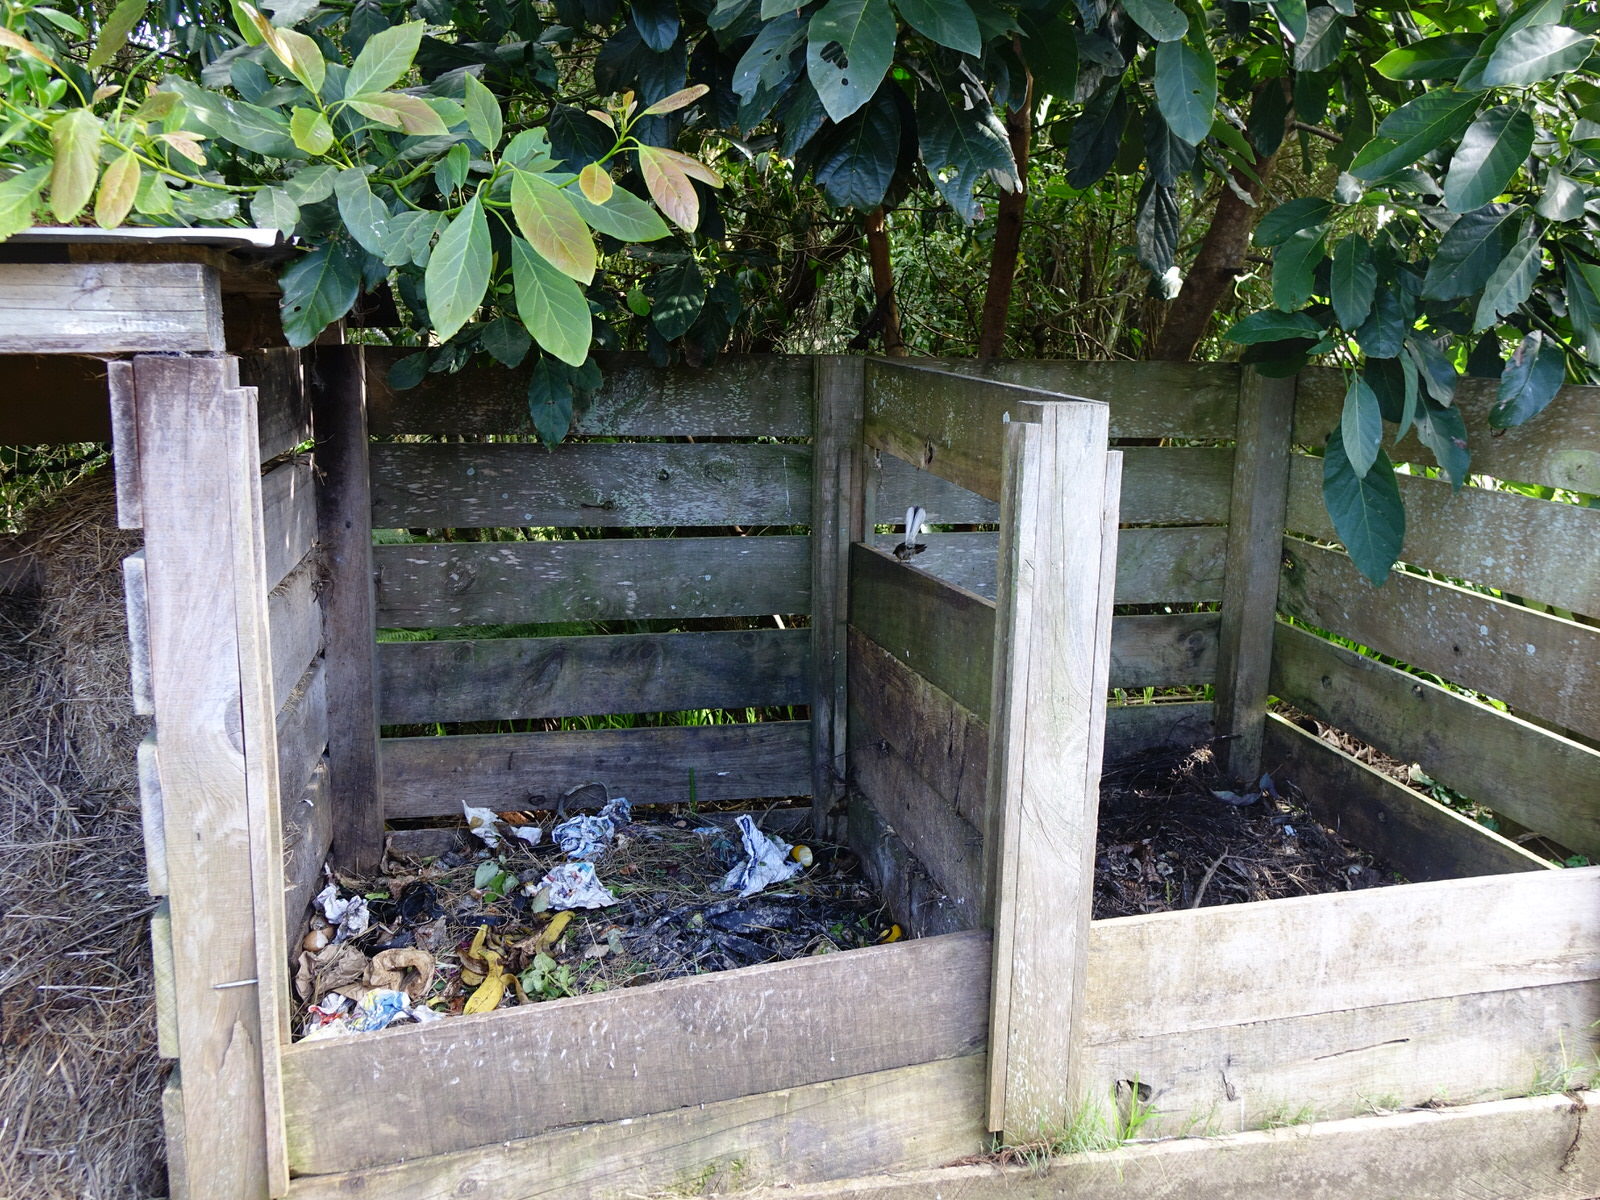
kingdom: Animalia
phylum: Chordata
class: Aves
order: Passeriformes
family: Rhipiduridae
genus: Rhipidura
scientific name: Rhipidura fuliginosa
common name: New zealand fantail
